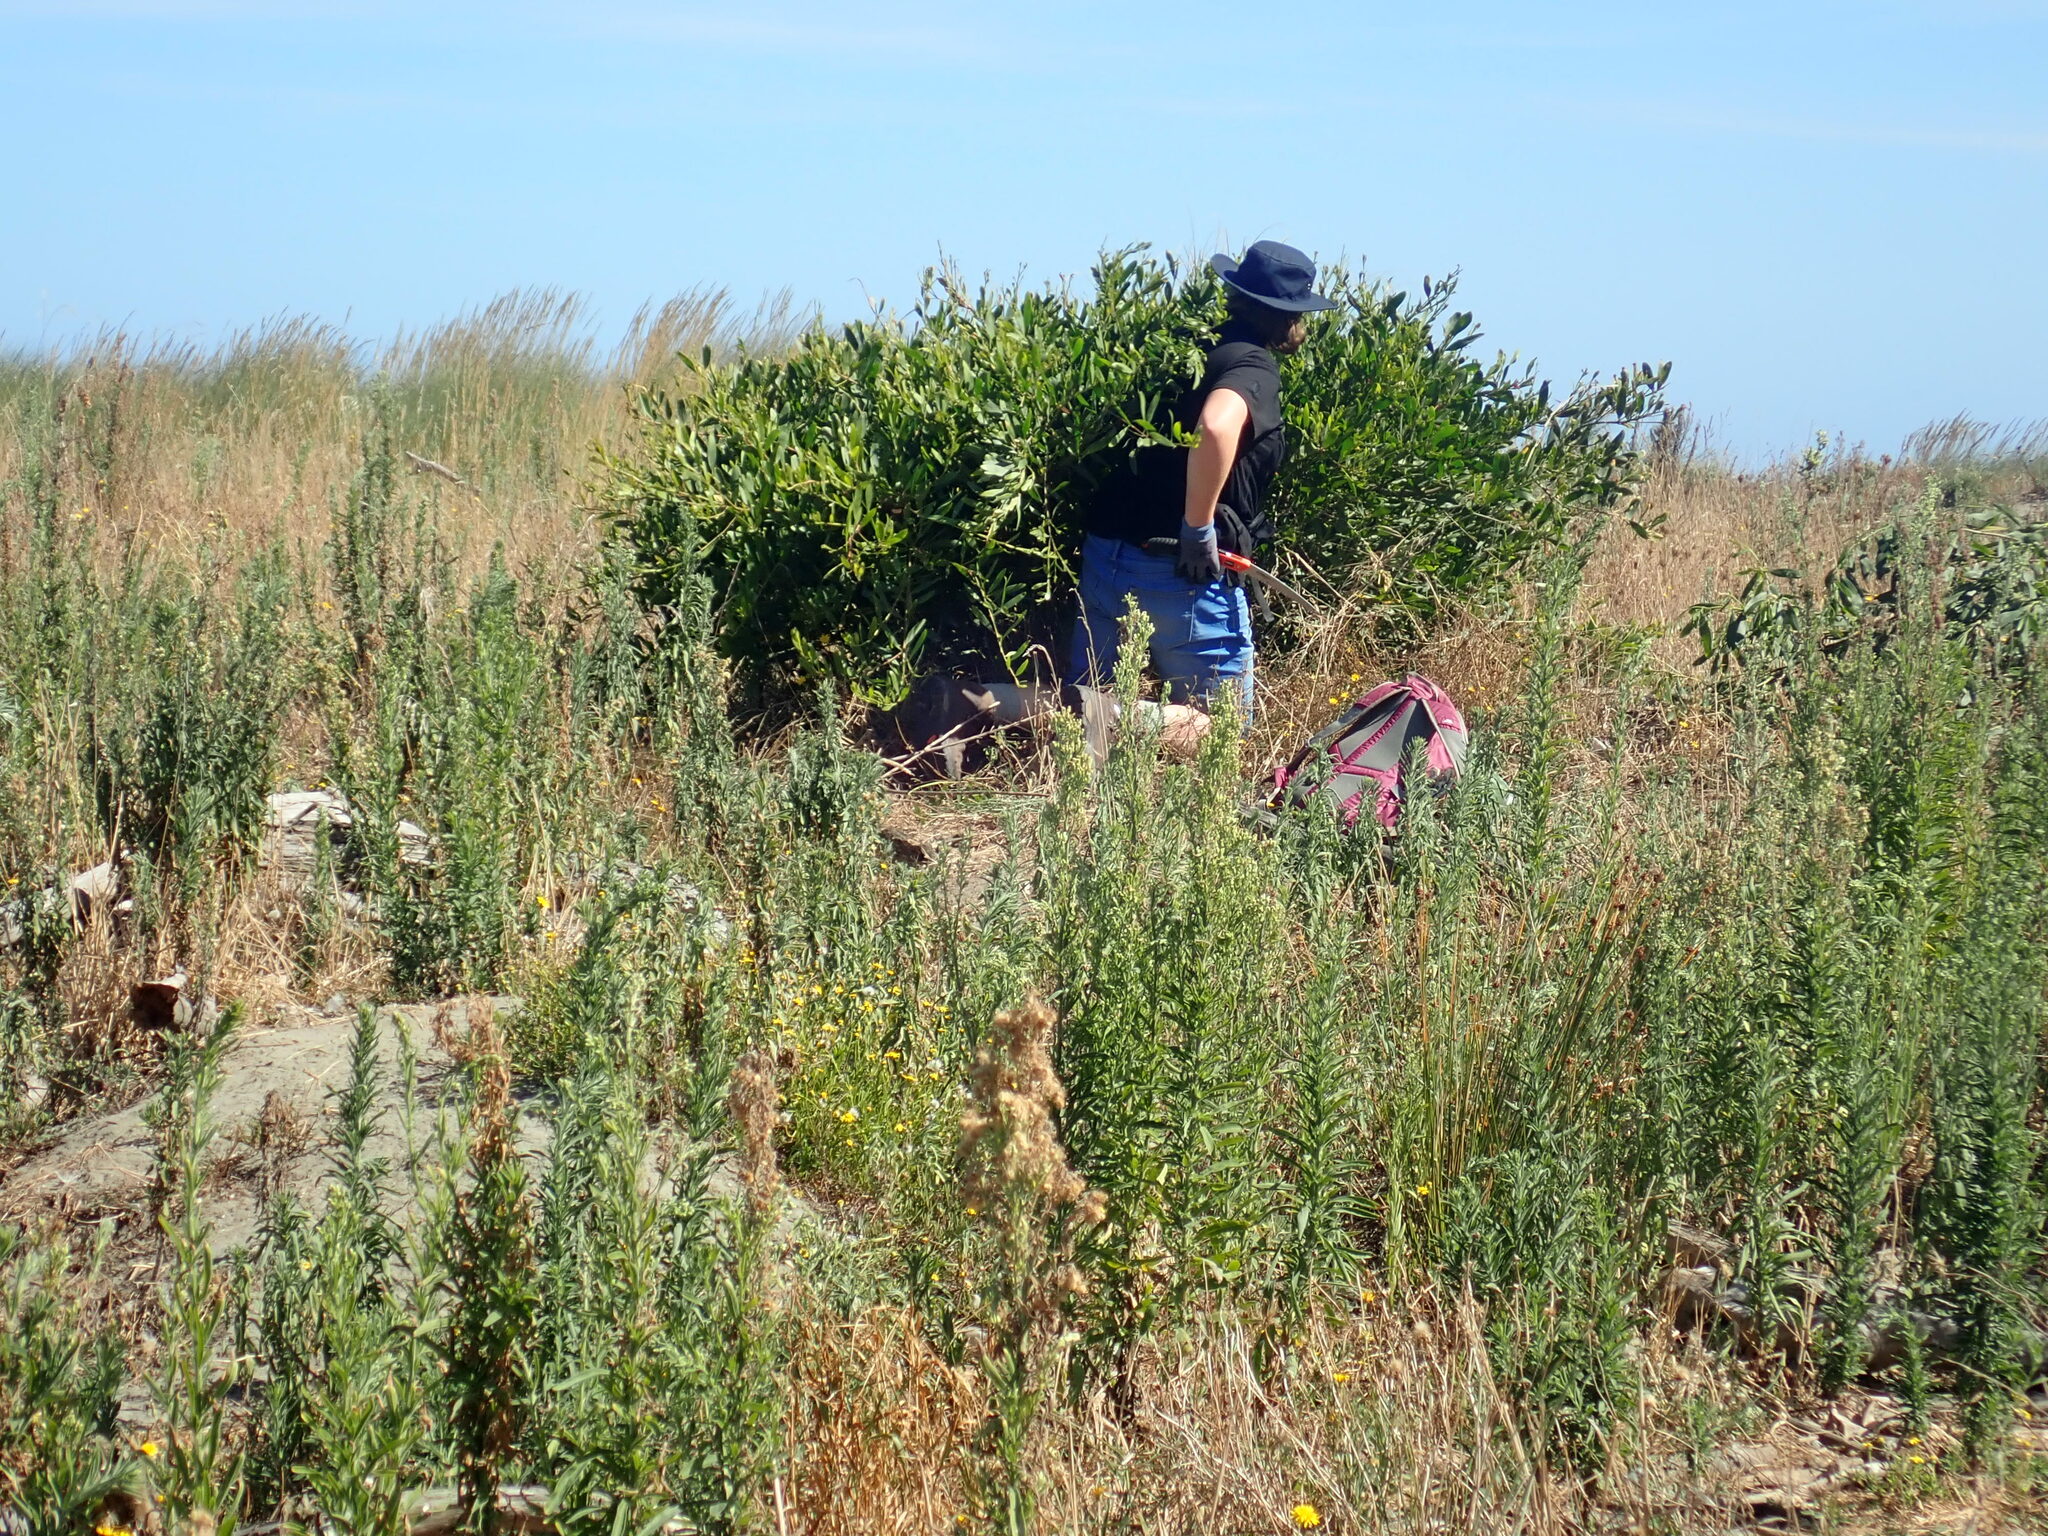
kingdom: Plantae
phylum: Tracheophyta
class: Magnoliopsida
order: Asterales
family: Asteraceae
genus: Erigeron
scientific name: Erigeron sumatrensis
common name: Daisy
